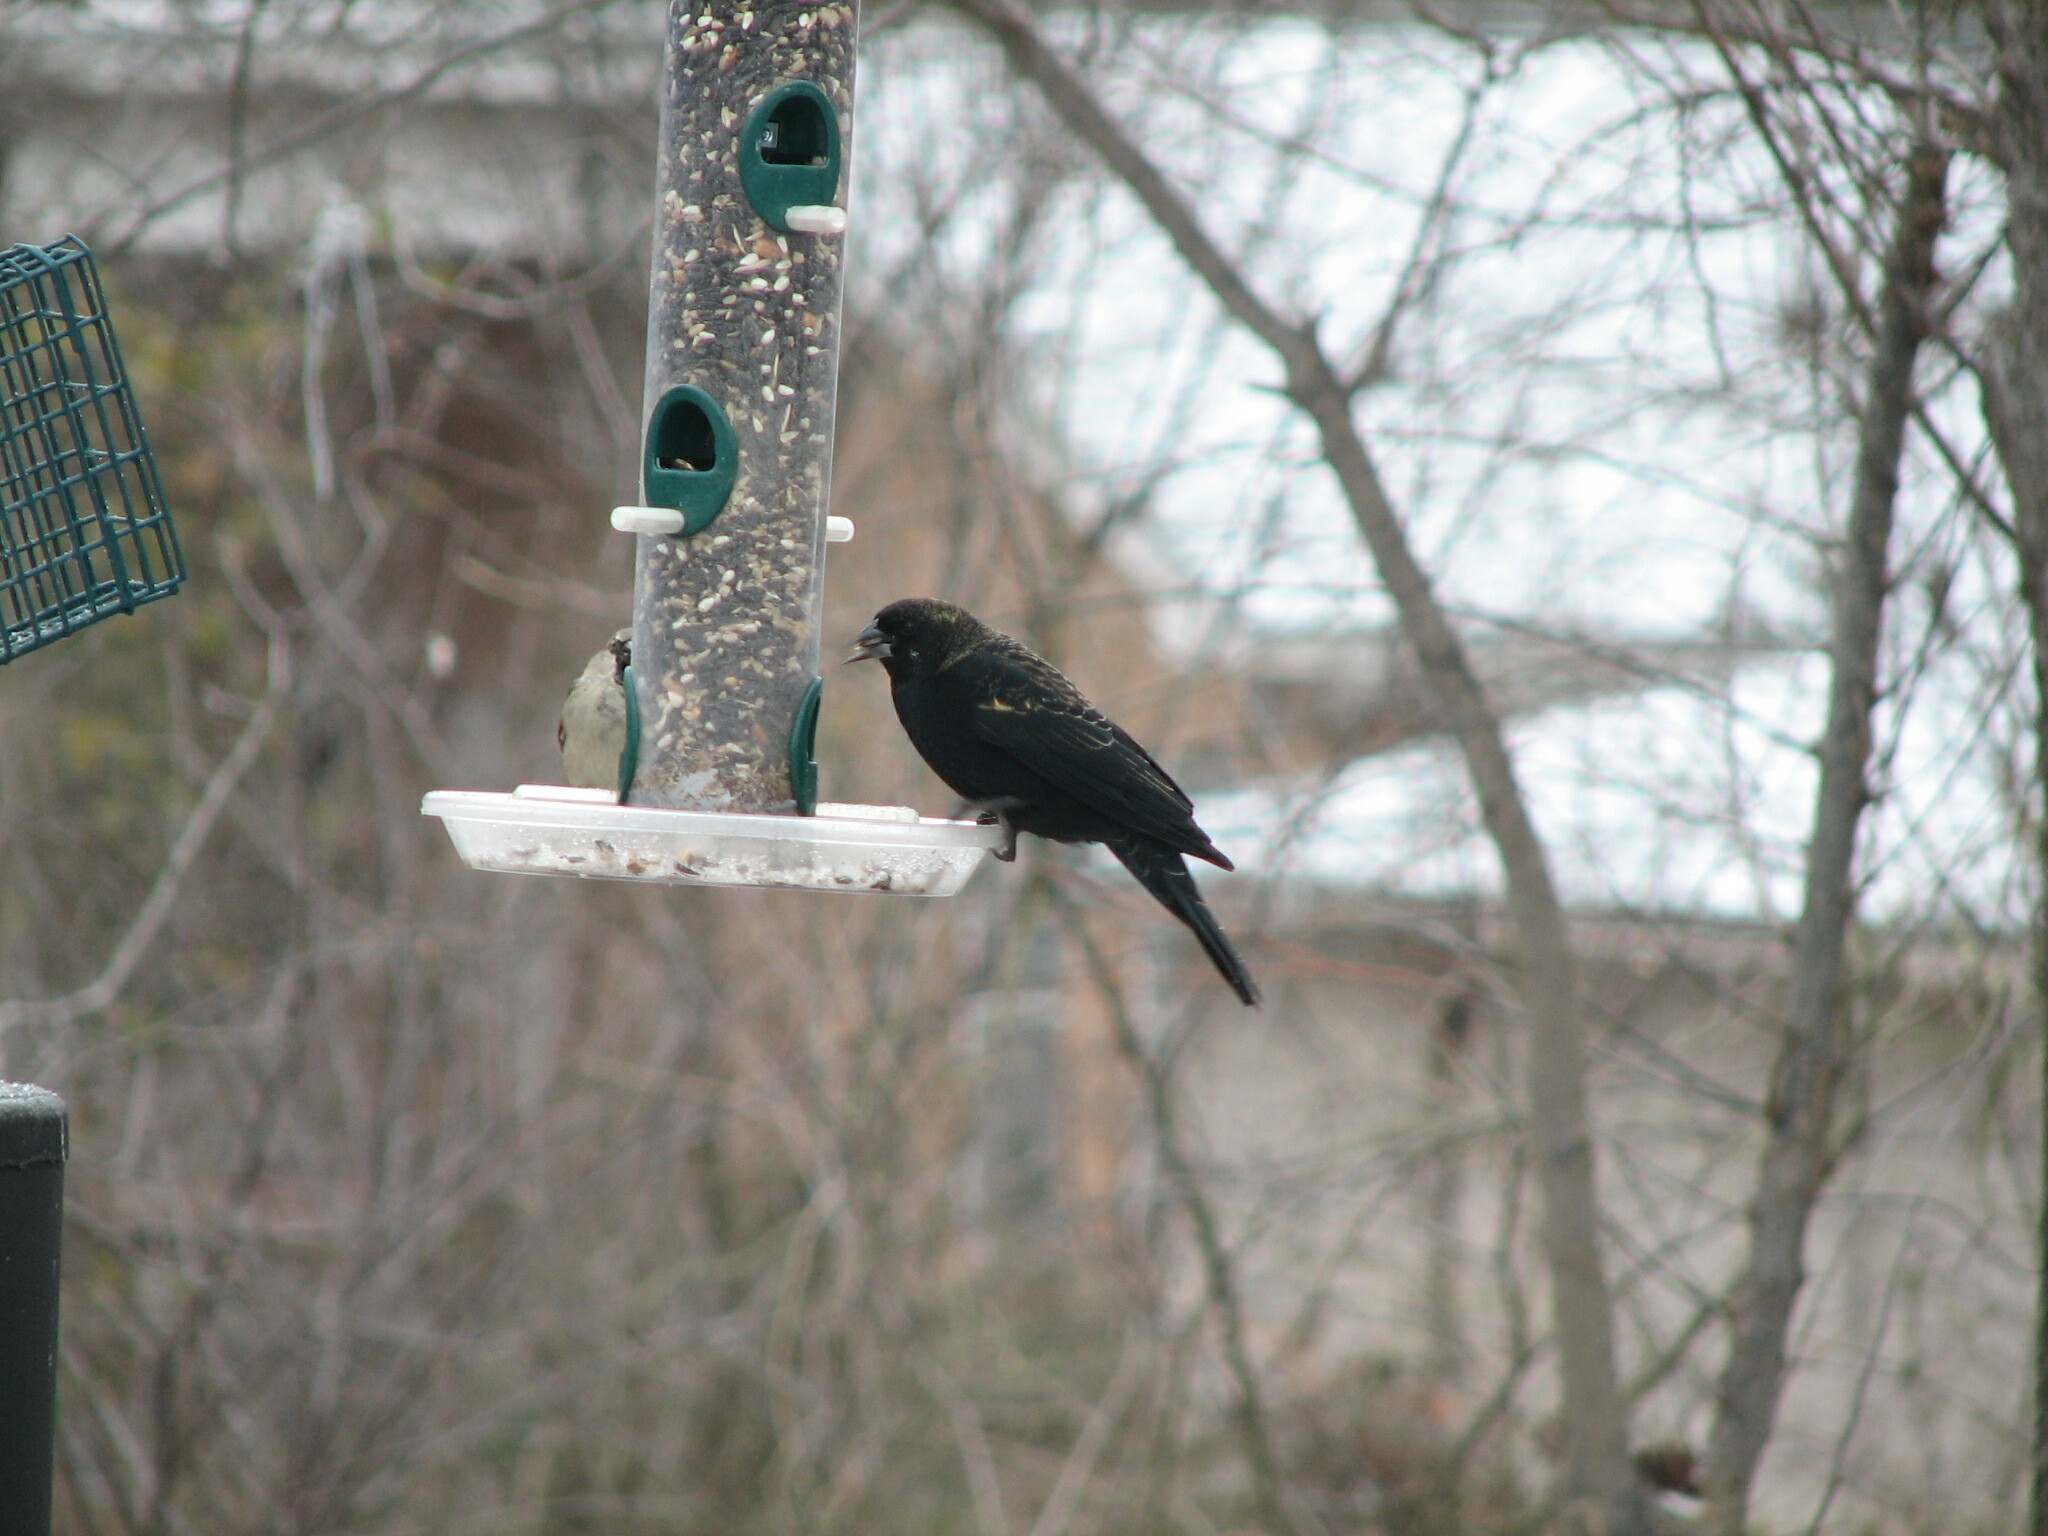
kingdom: Animalia
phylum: Chordata
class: Aves
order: Passeriformes
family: Icteridae
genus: Agelaius
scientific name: Agelaius phoeniceus
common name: Red-winged blackbird
